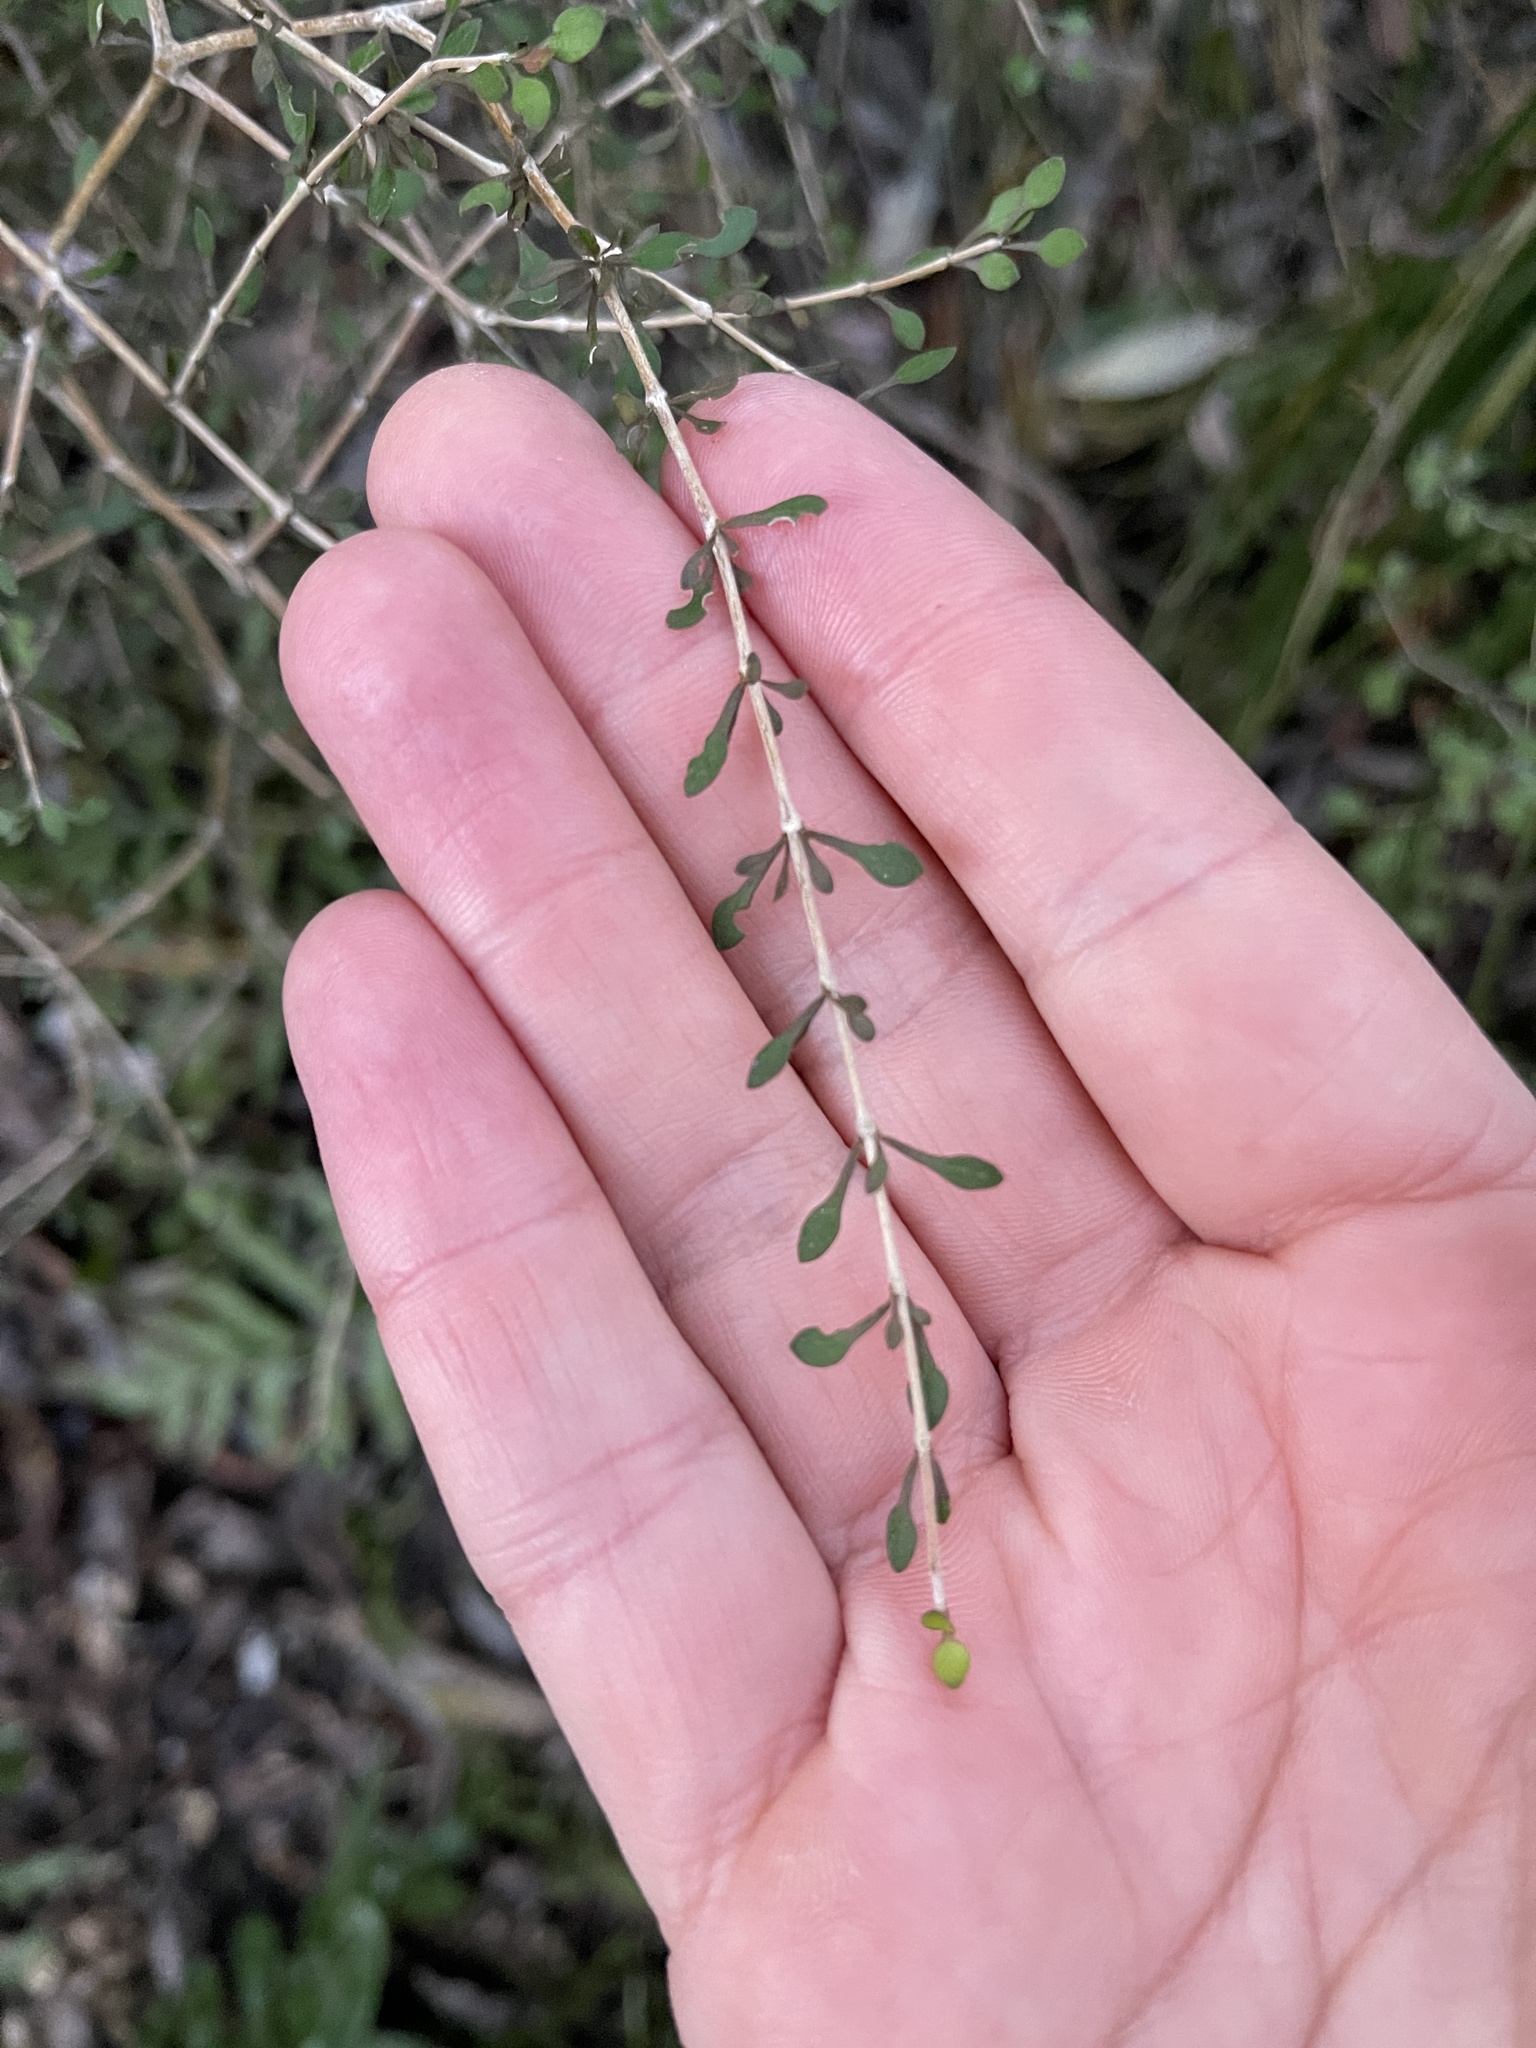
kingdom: Plantae
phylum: Tracheophyta
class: Magnoliopsida
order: Gentianales
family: Rubiaceae
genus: Coprosma
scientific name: Coprosma virescens
